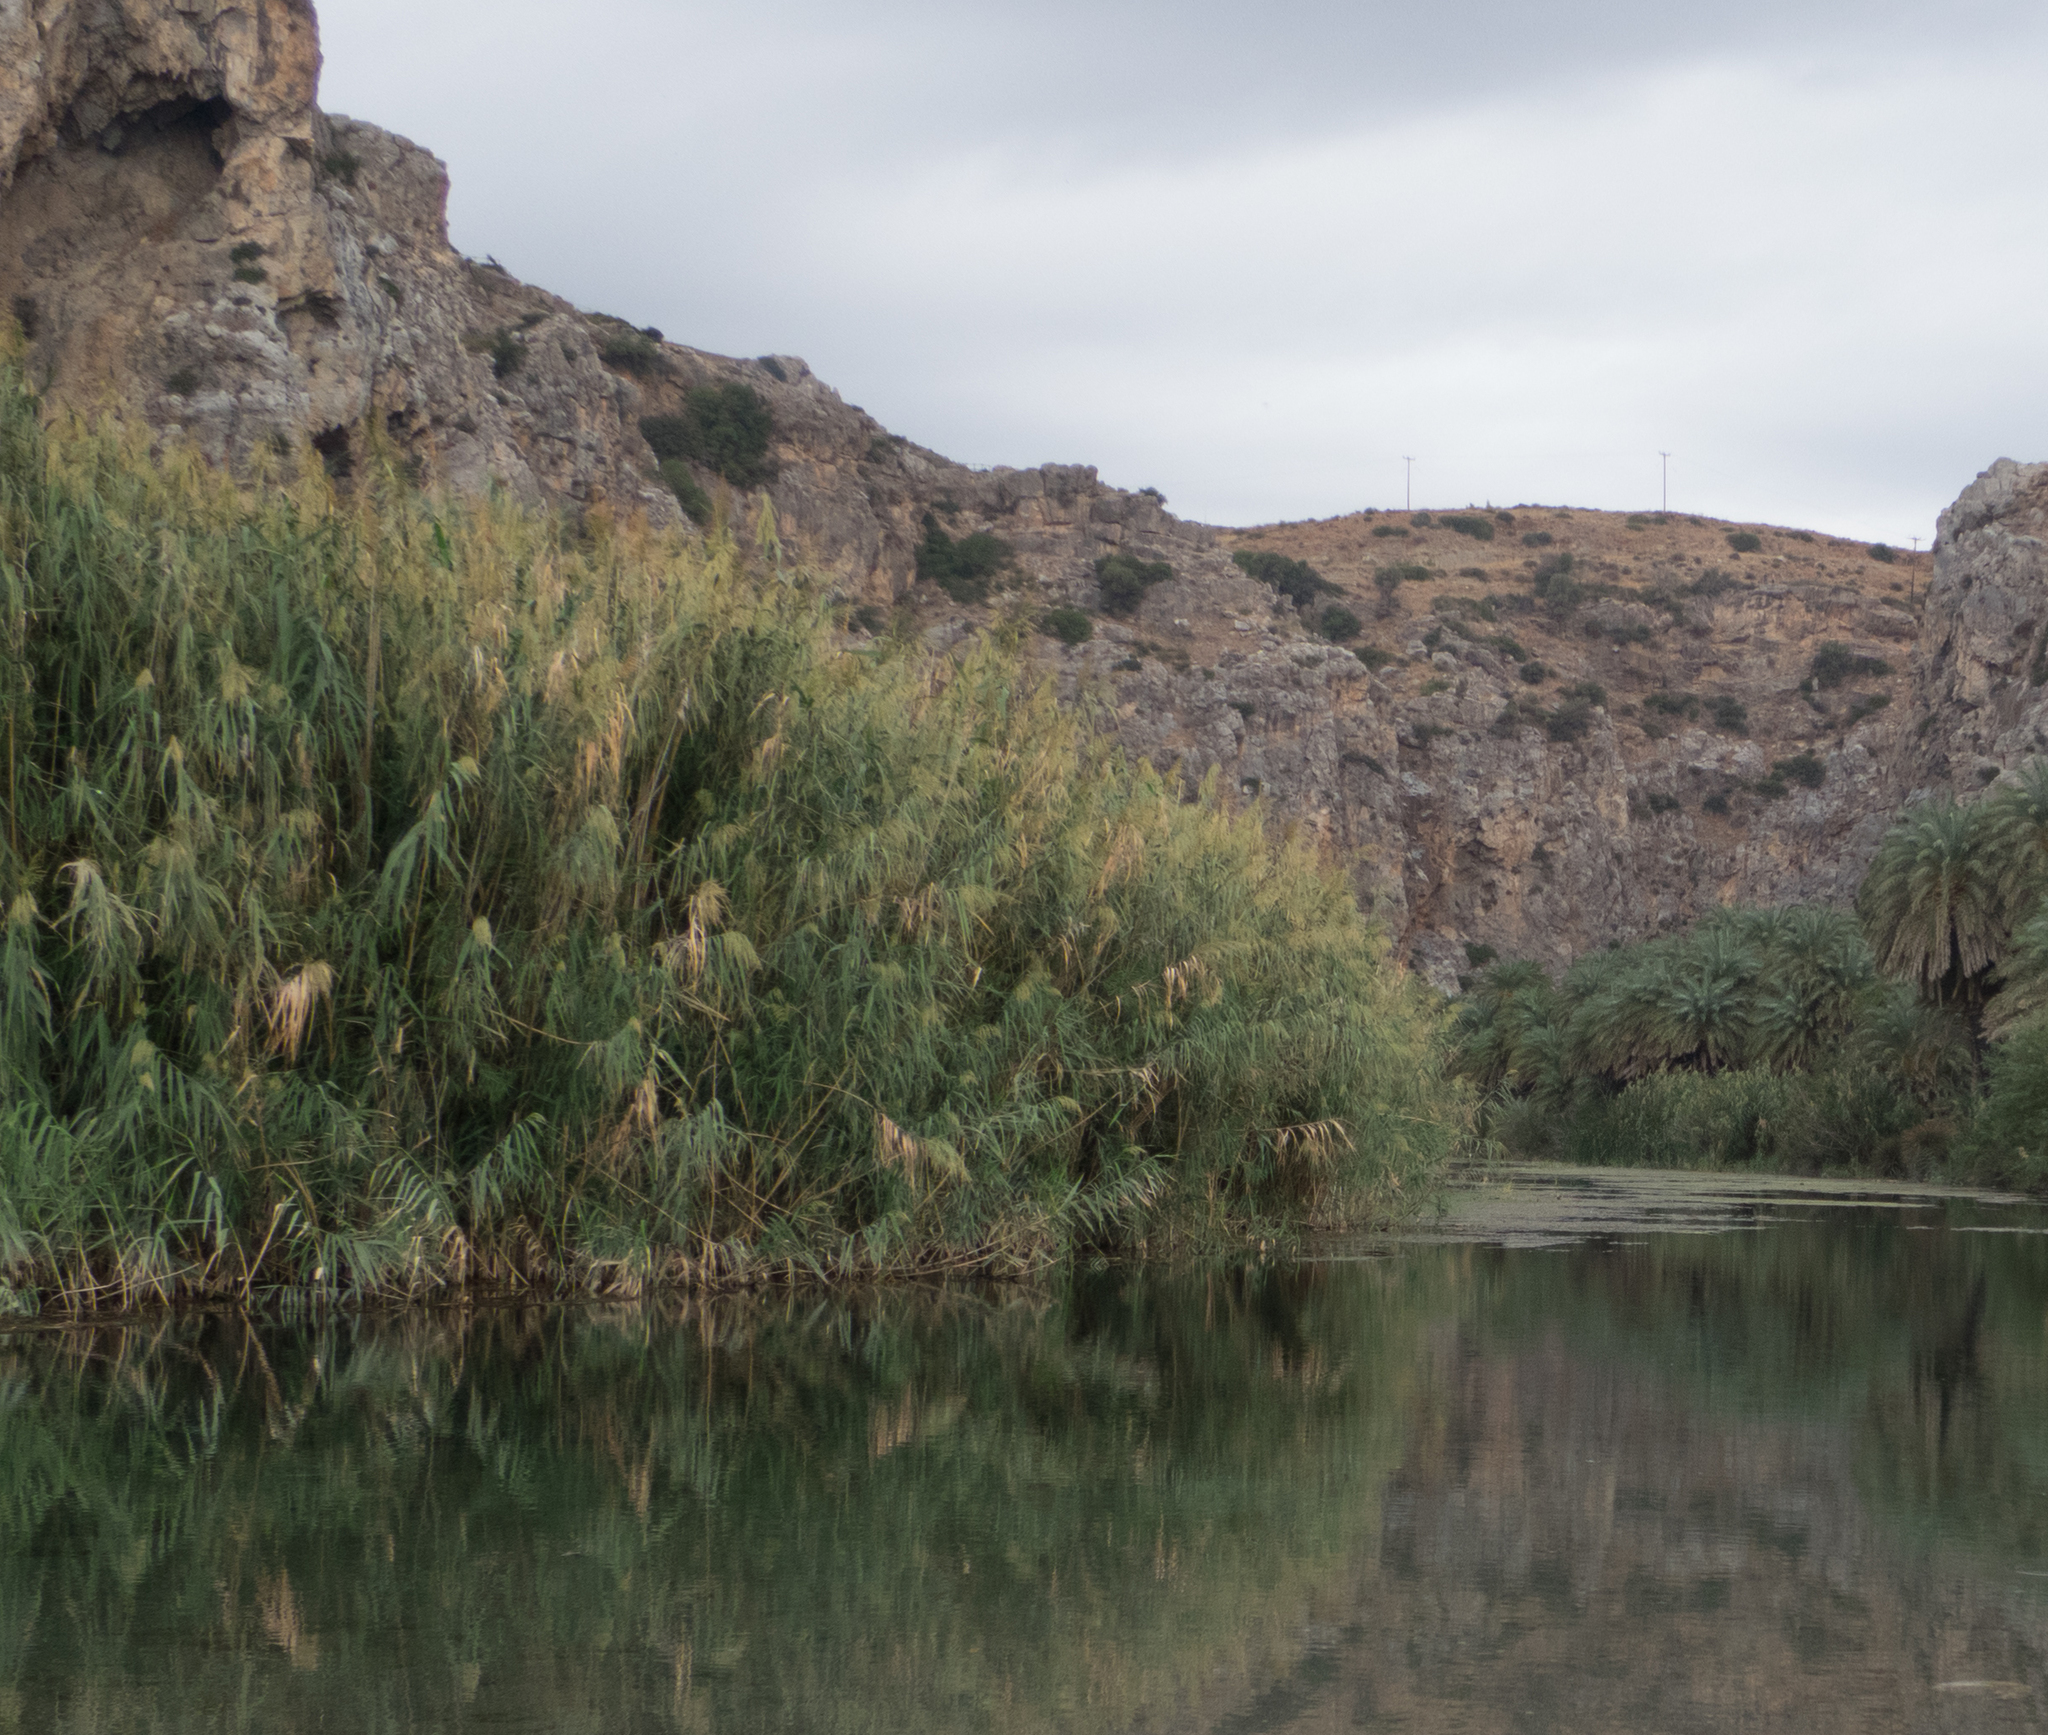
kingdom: Plantae
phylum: Tracheophyta
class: Liliopsida
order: Poales
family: Poaceae
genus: Arundo
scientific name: Arundo donax
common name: Giant reed
